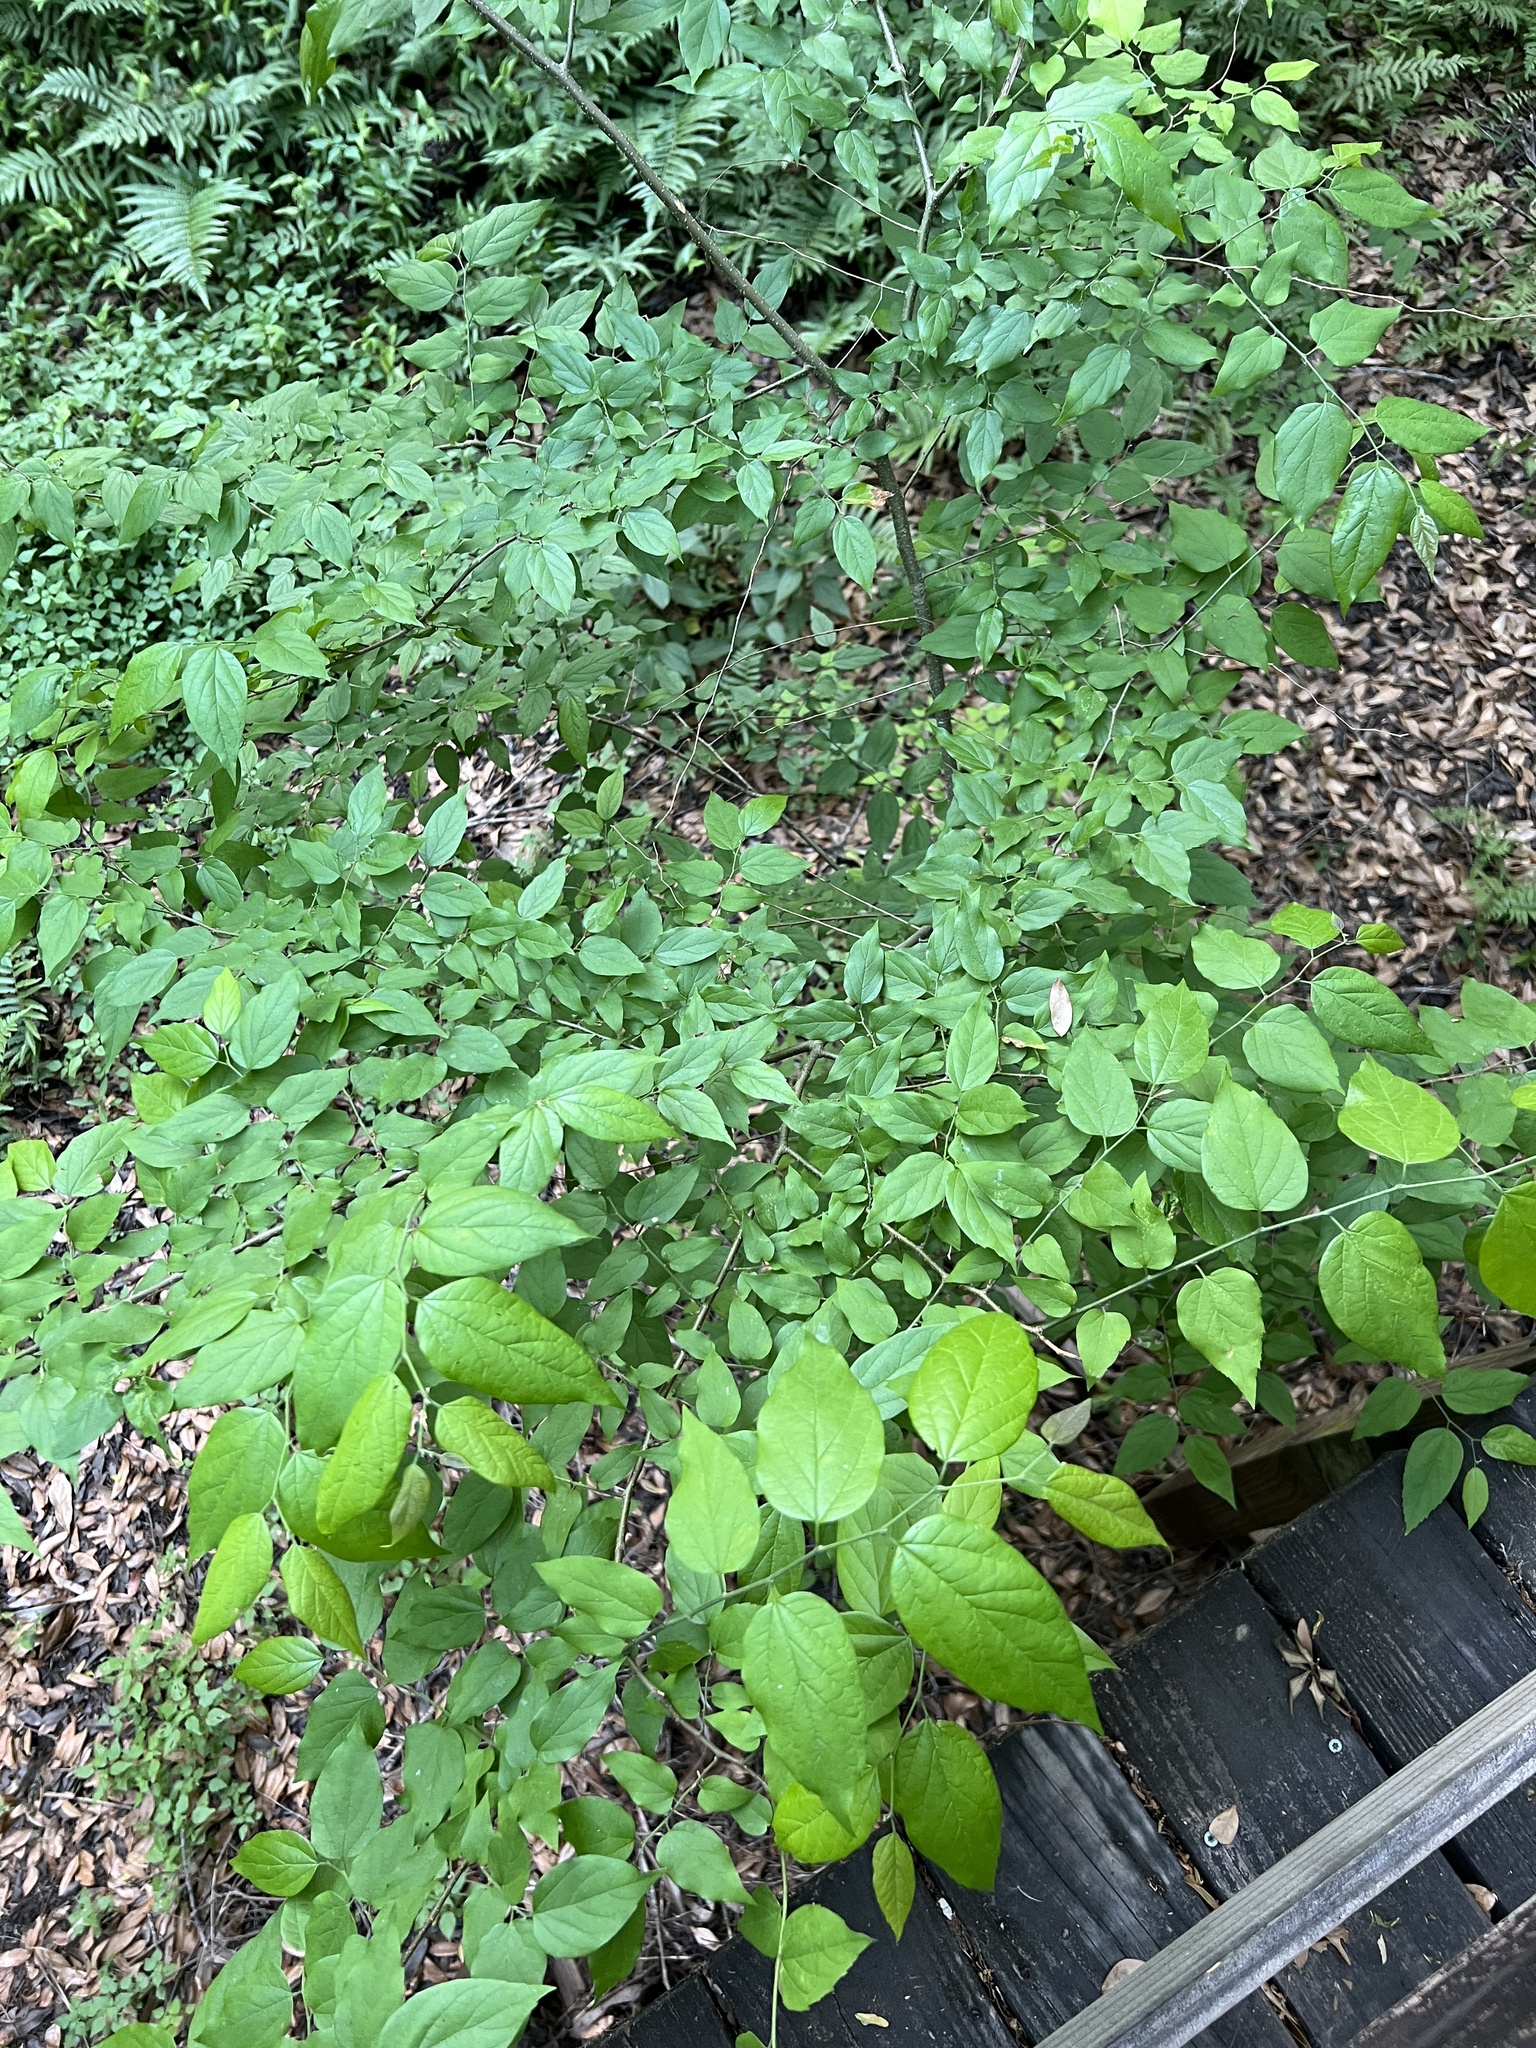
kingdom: Plantae
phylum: Tracheophyta
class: Magnoliopsida
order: Rosales
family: Cannabaceae
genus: Celtis
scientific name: Celtis laevigata
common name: Sugarberry
